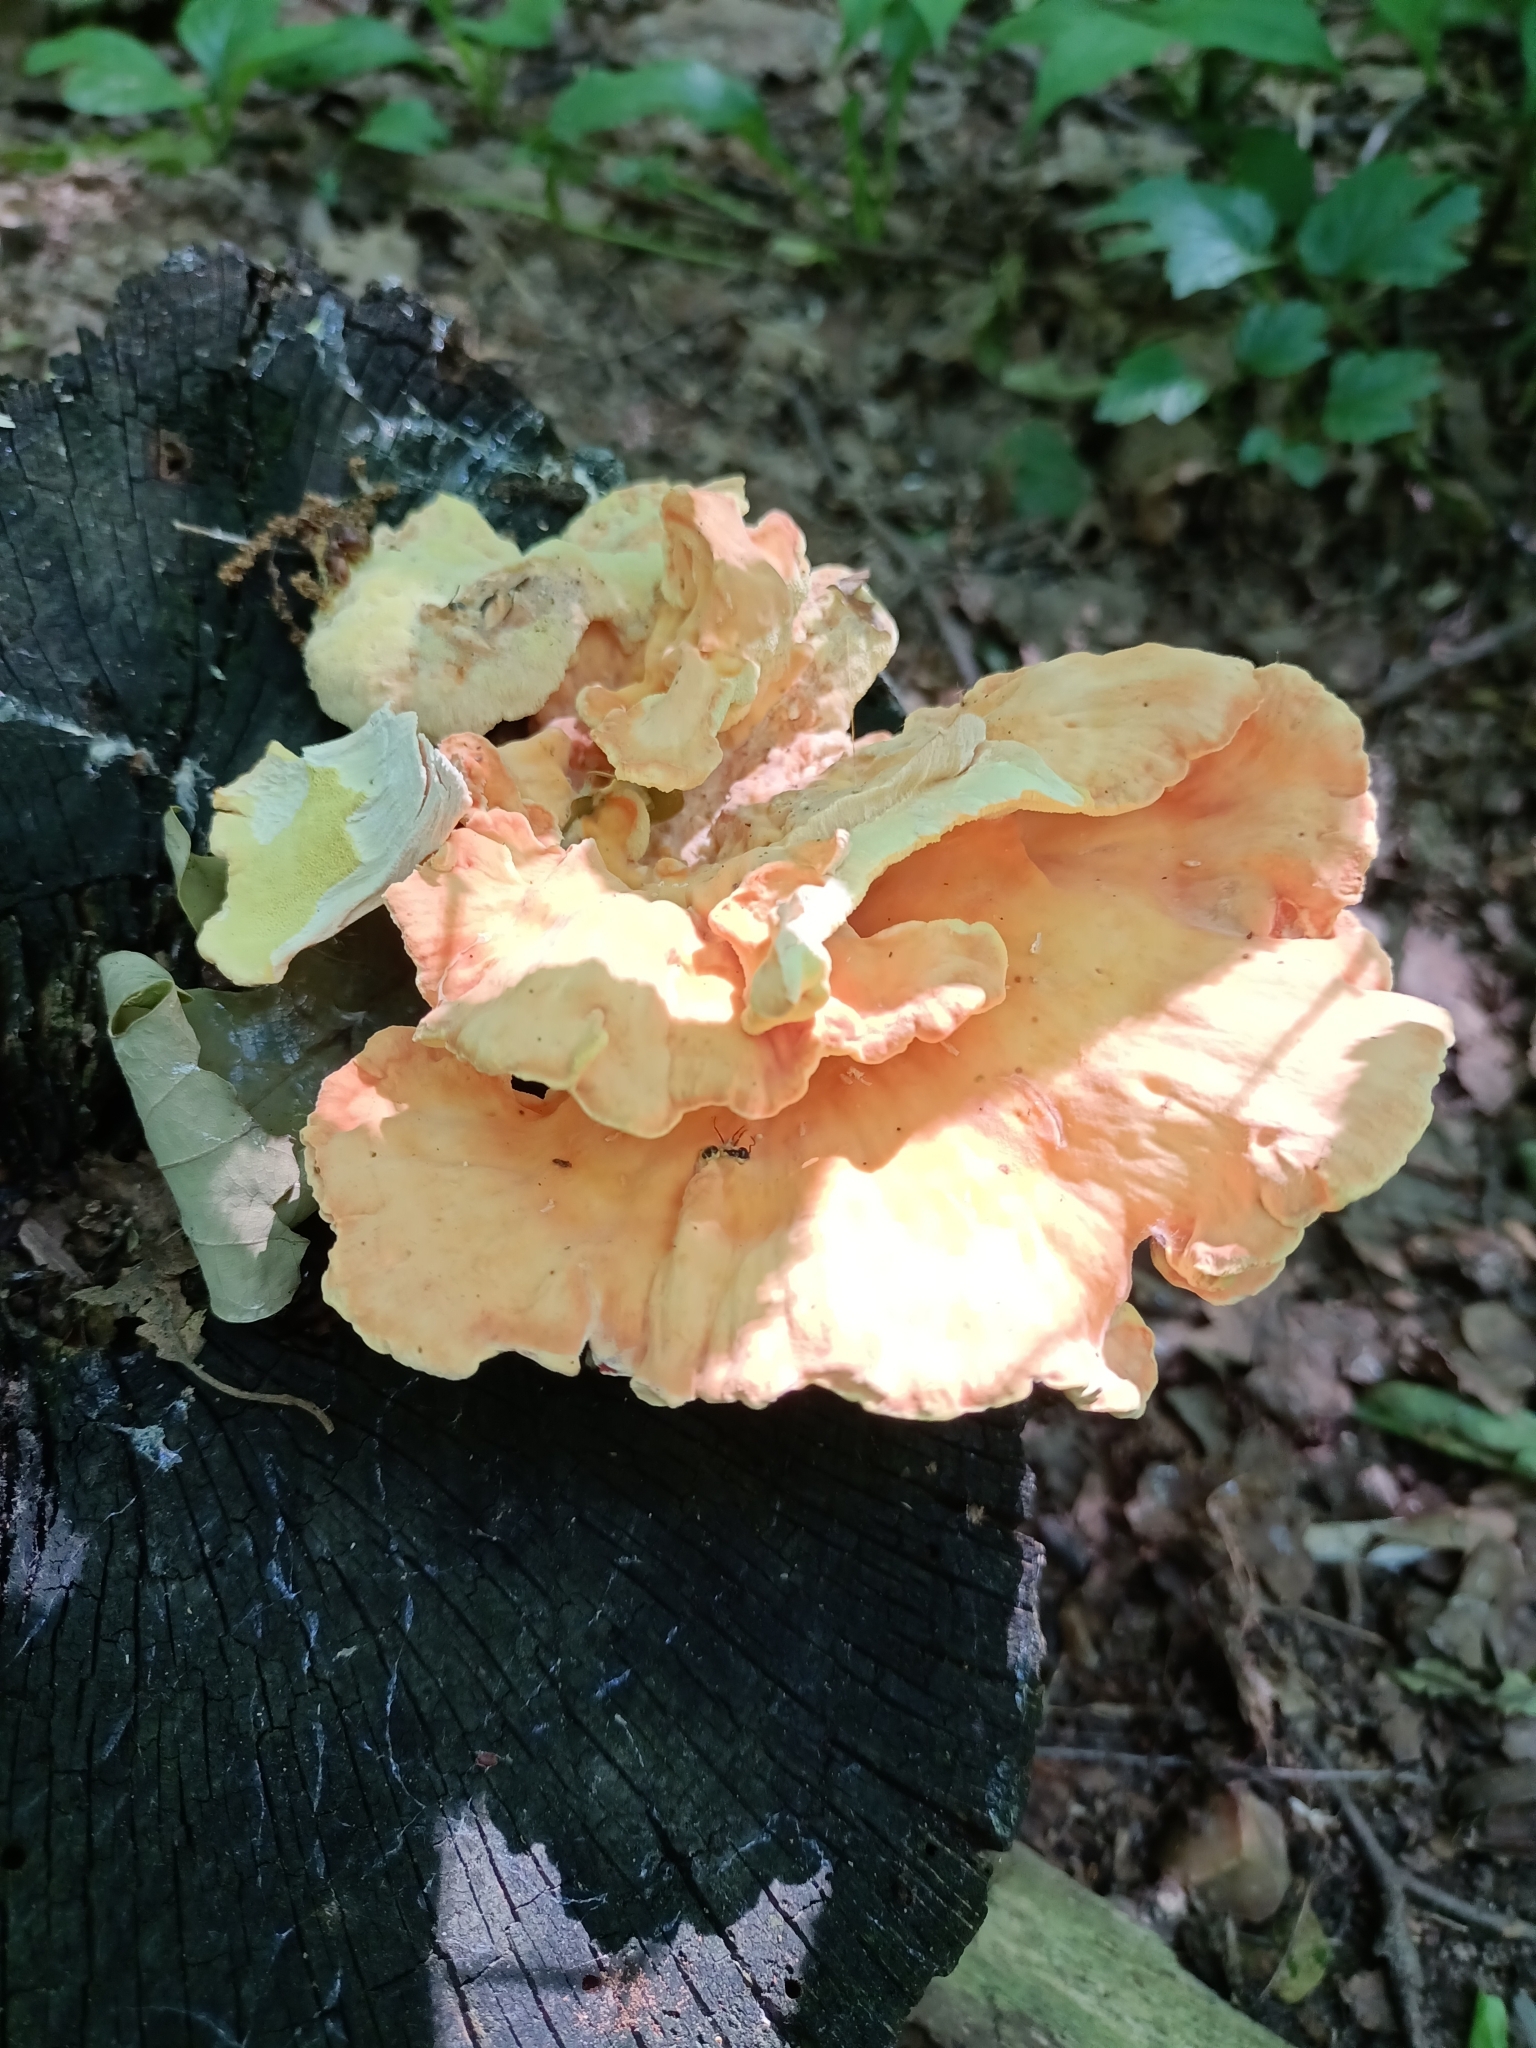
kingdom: Fungi
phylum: Basidiomycota
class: Agaricomycetes
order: Polyporales
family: Laetiporaceae
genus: Laetiporus
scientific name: Laetiporus sulphureus
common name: Chicken of the woods
